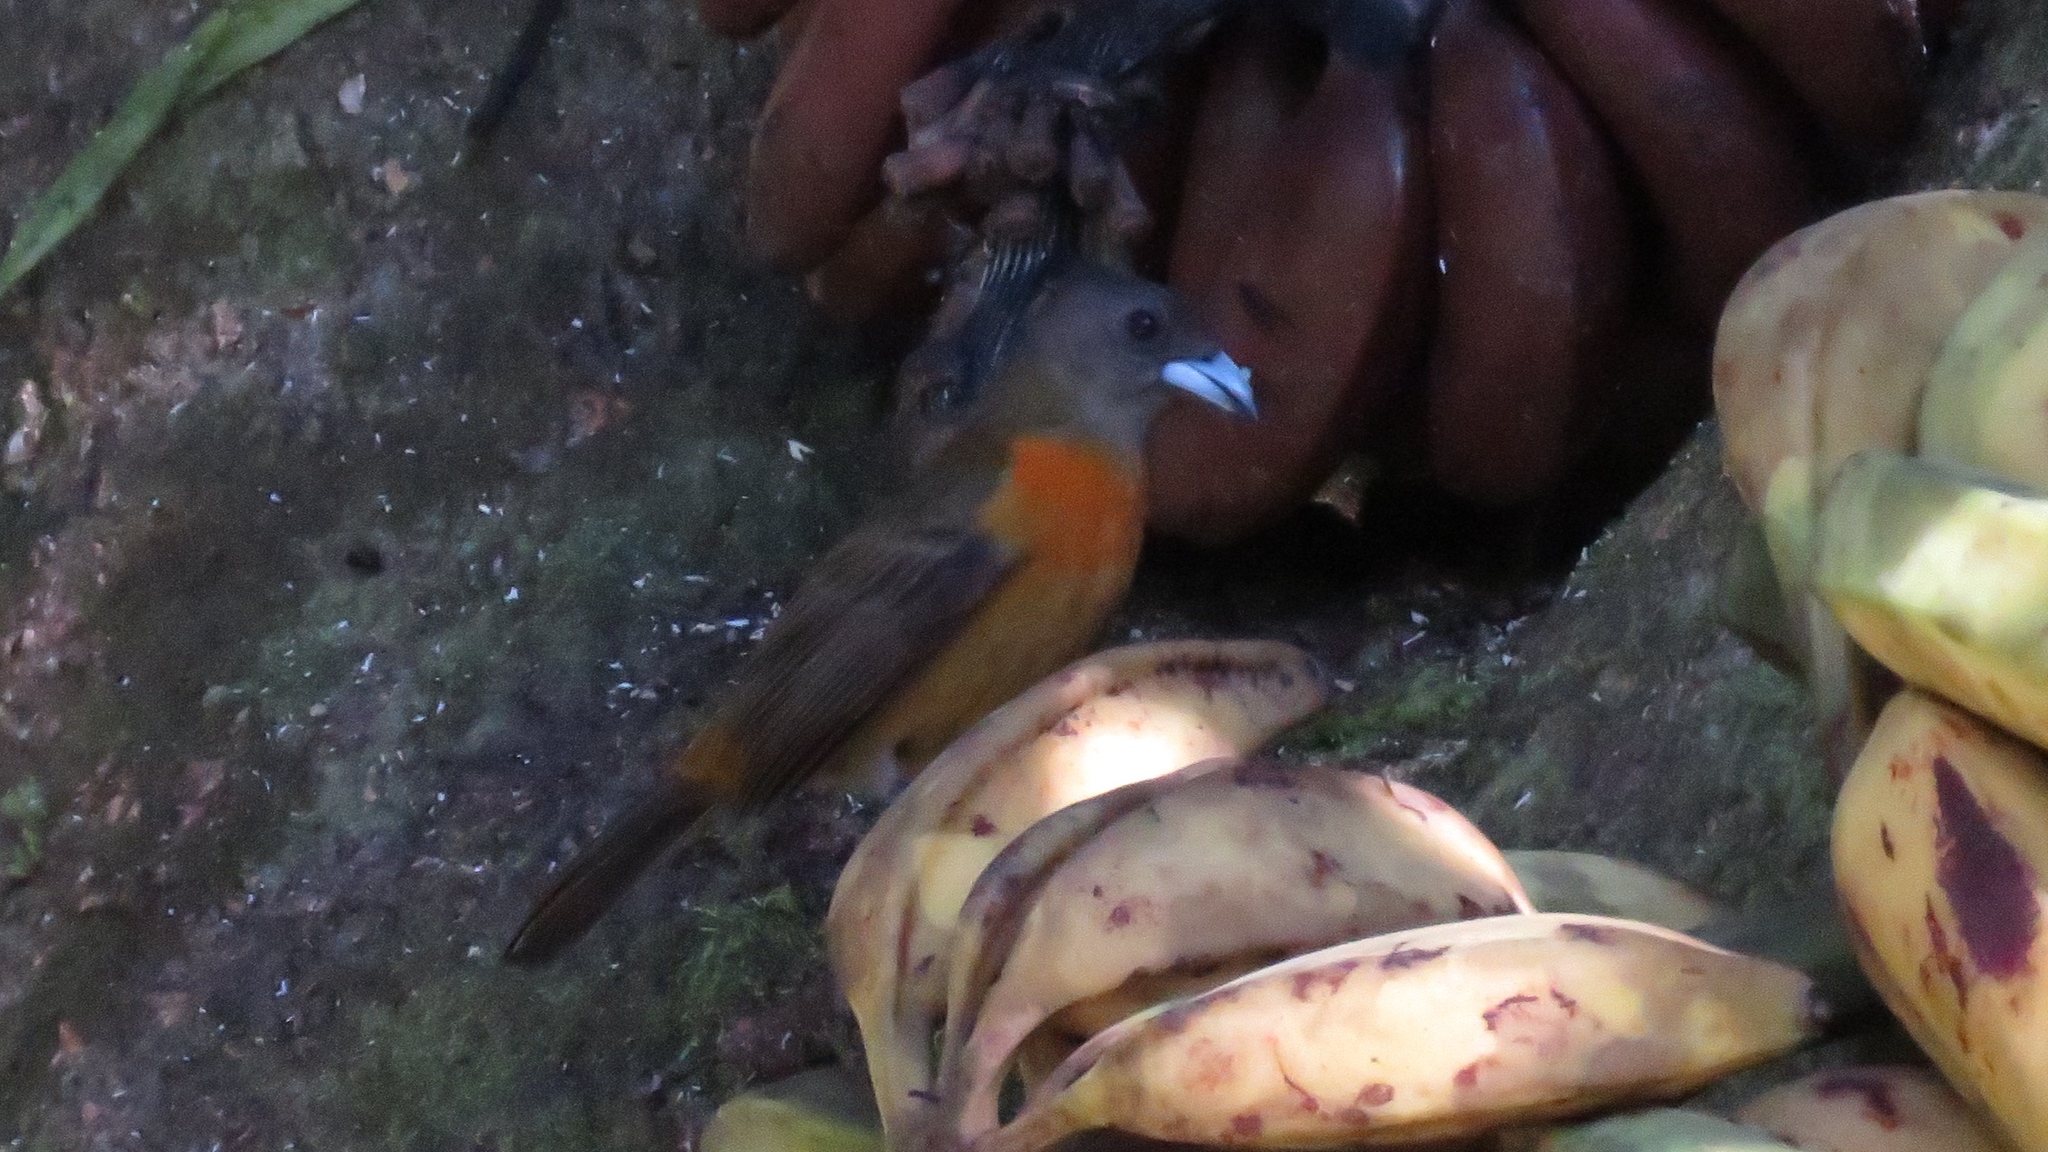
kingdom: Animalia
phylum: Chordata
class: Aves
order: Passeriformes
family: Thraupidae
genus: Ramphocelus
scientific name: Ramphocelus passerinii
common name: Passerini's tanager
